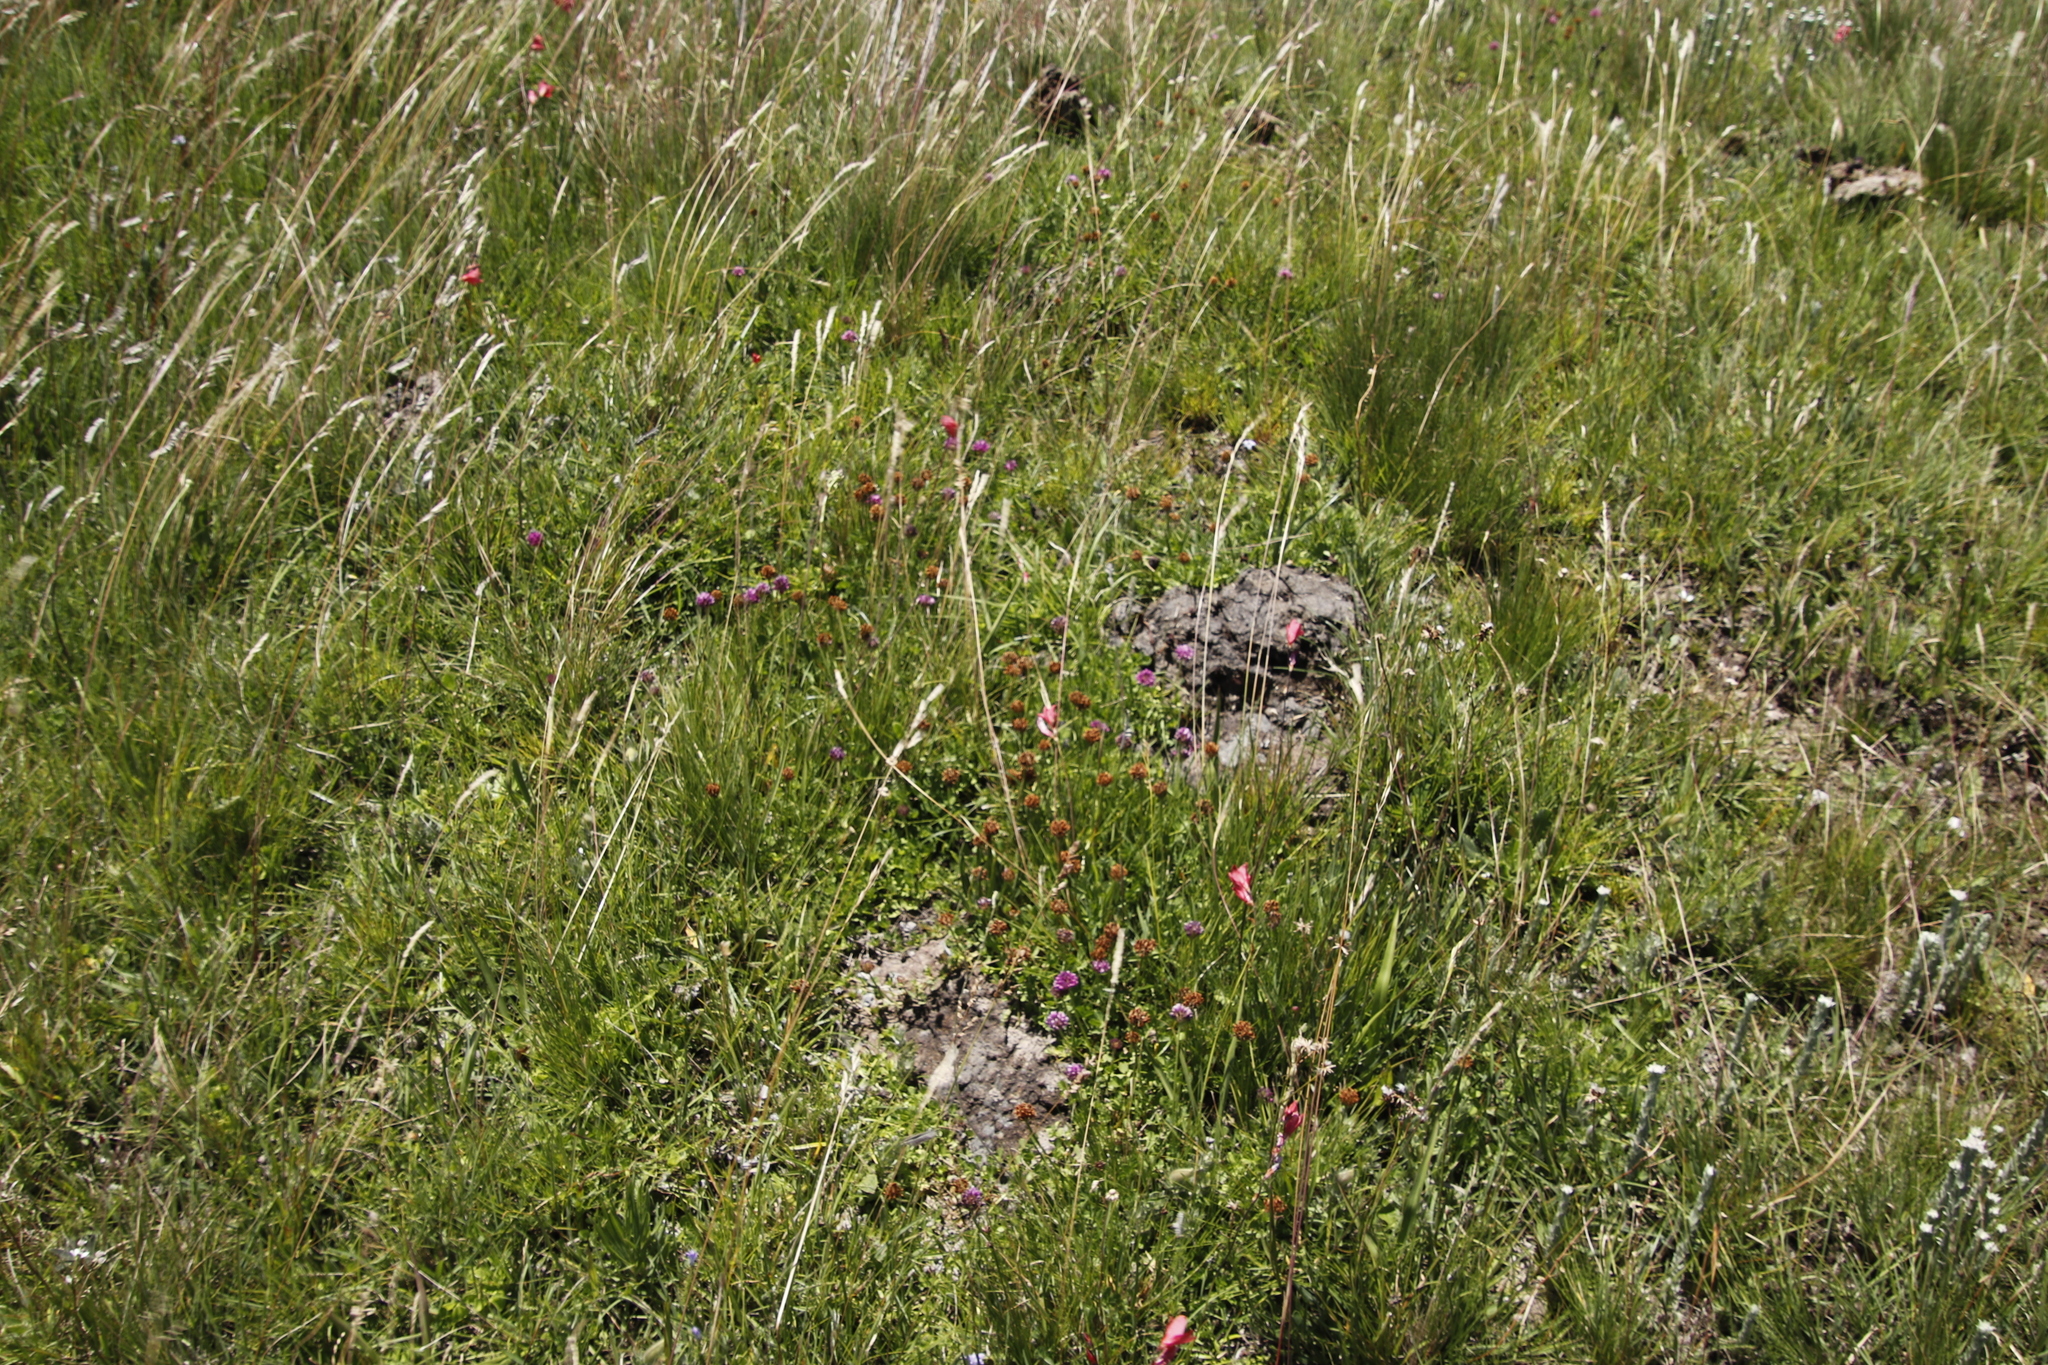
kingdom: Plantae
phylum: Tracheophyta
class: Magnoliopsida
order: Fabales
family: Fabaceae
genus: Trifolium
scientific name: Trifolium burchellianum
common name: Burchell's clover
